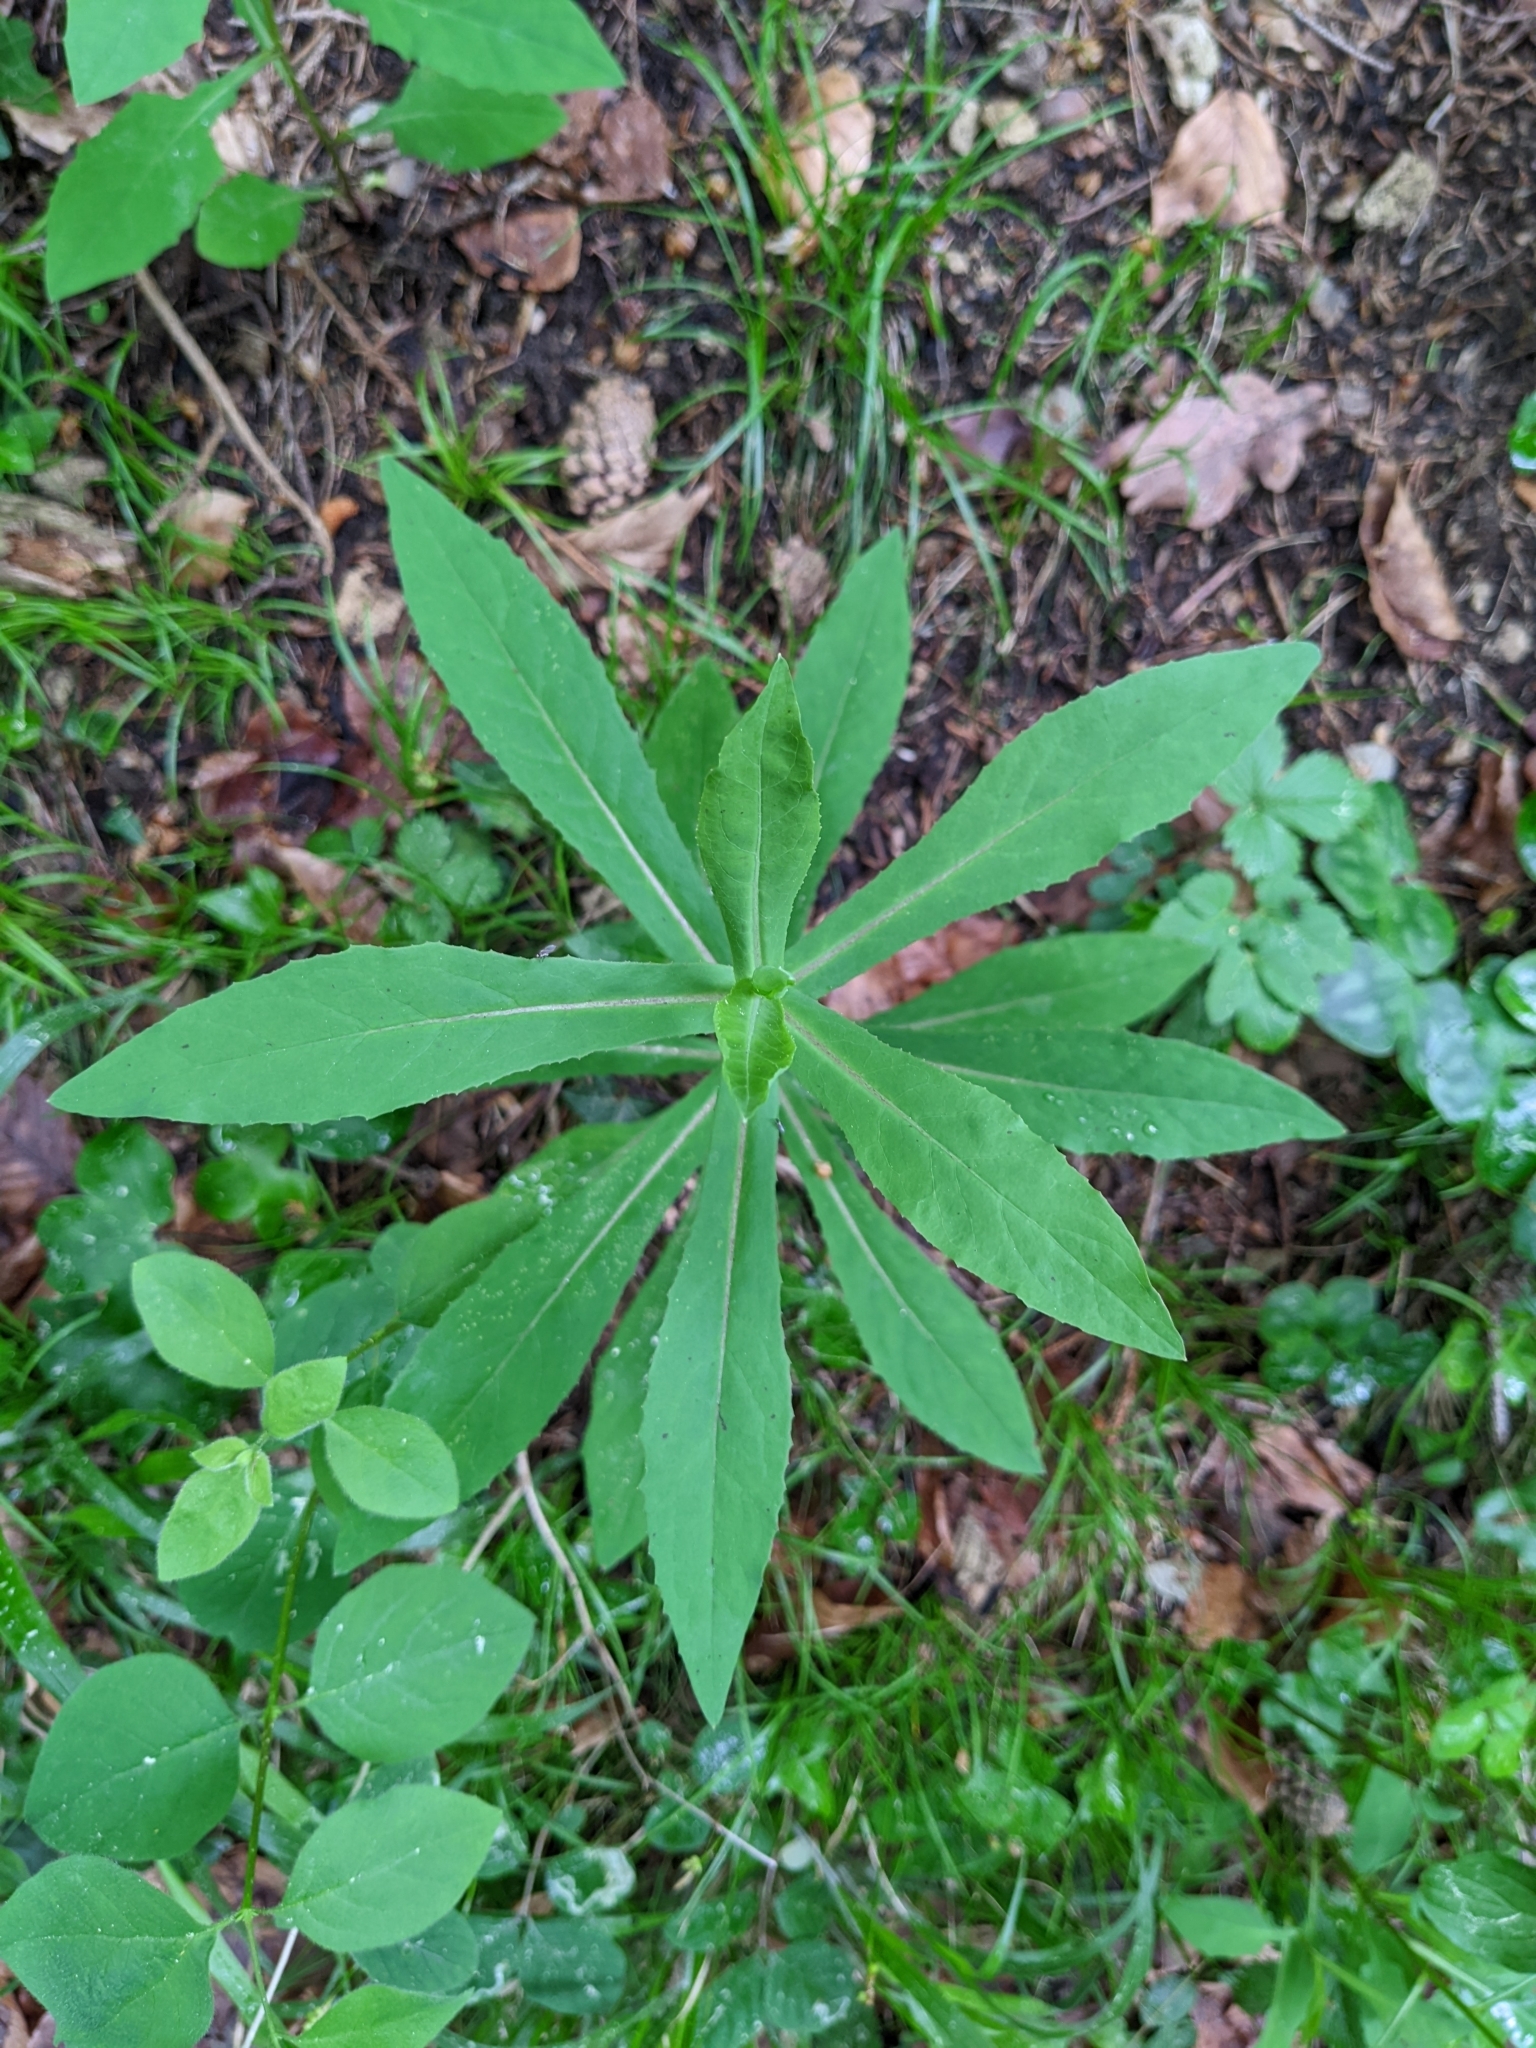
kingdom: Plantae
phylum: Tracheophyta
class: Magnoliopsida
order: Asterales
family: Asteraceae
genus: Prenanthes
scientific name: Prenanthes purpurea
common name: Purple lettuce
